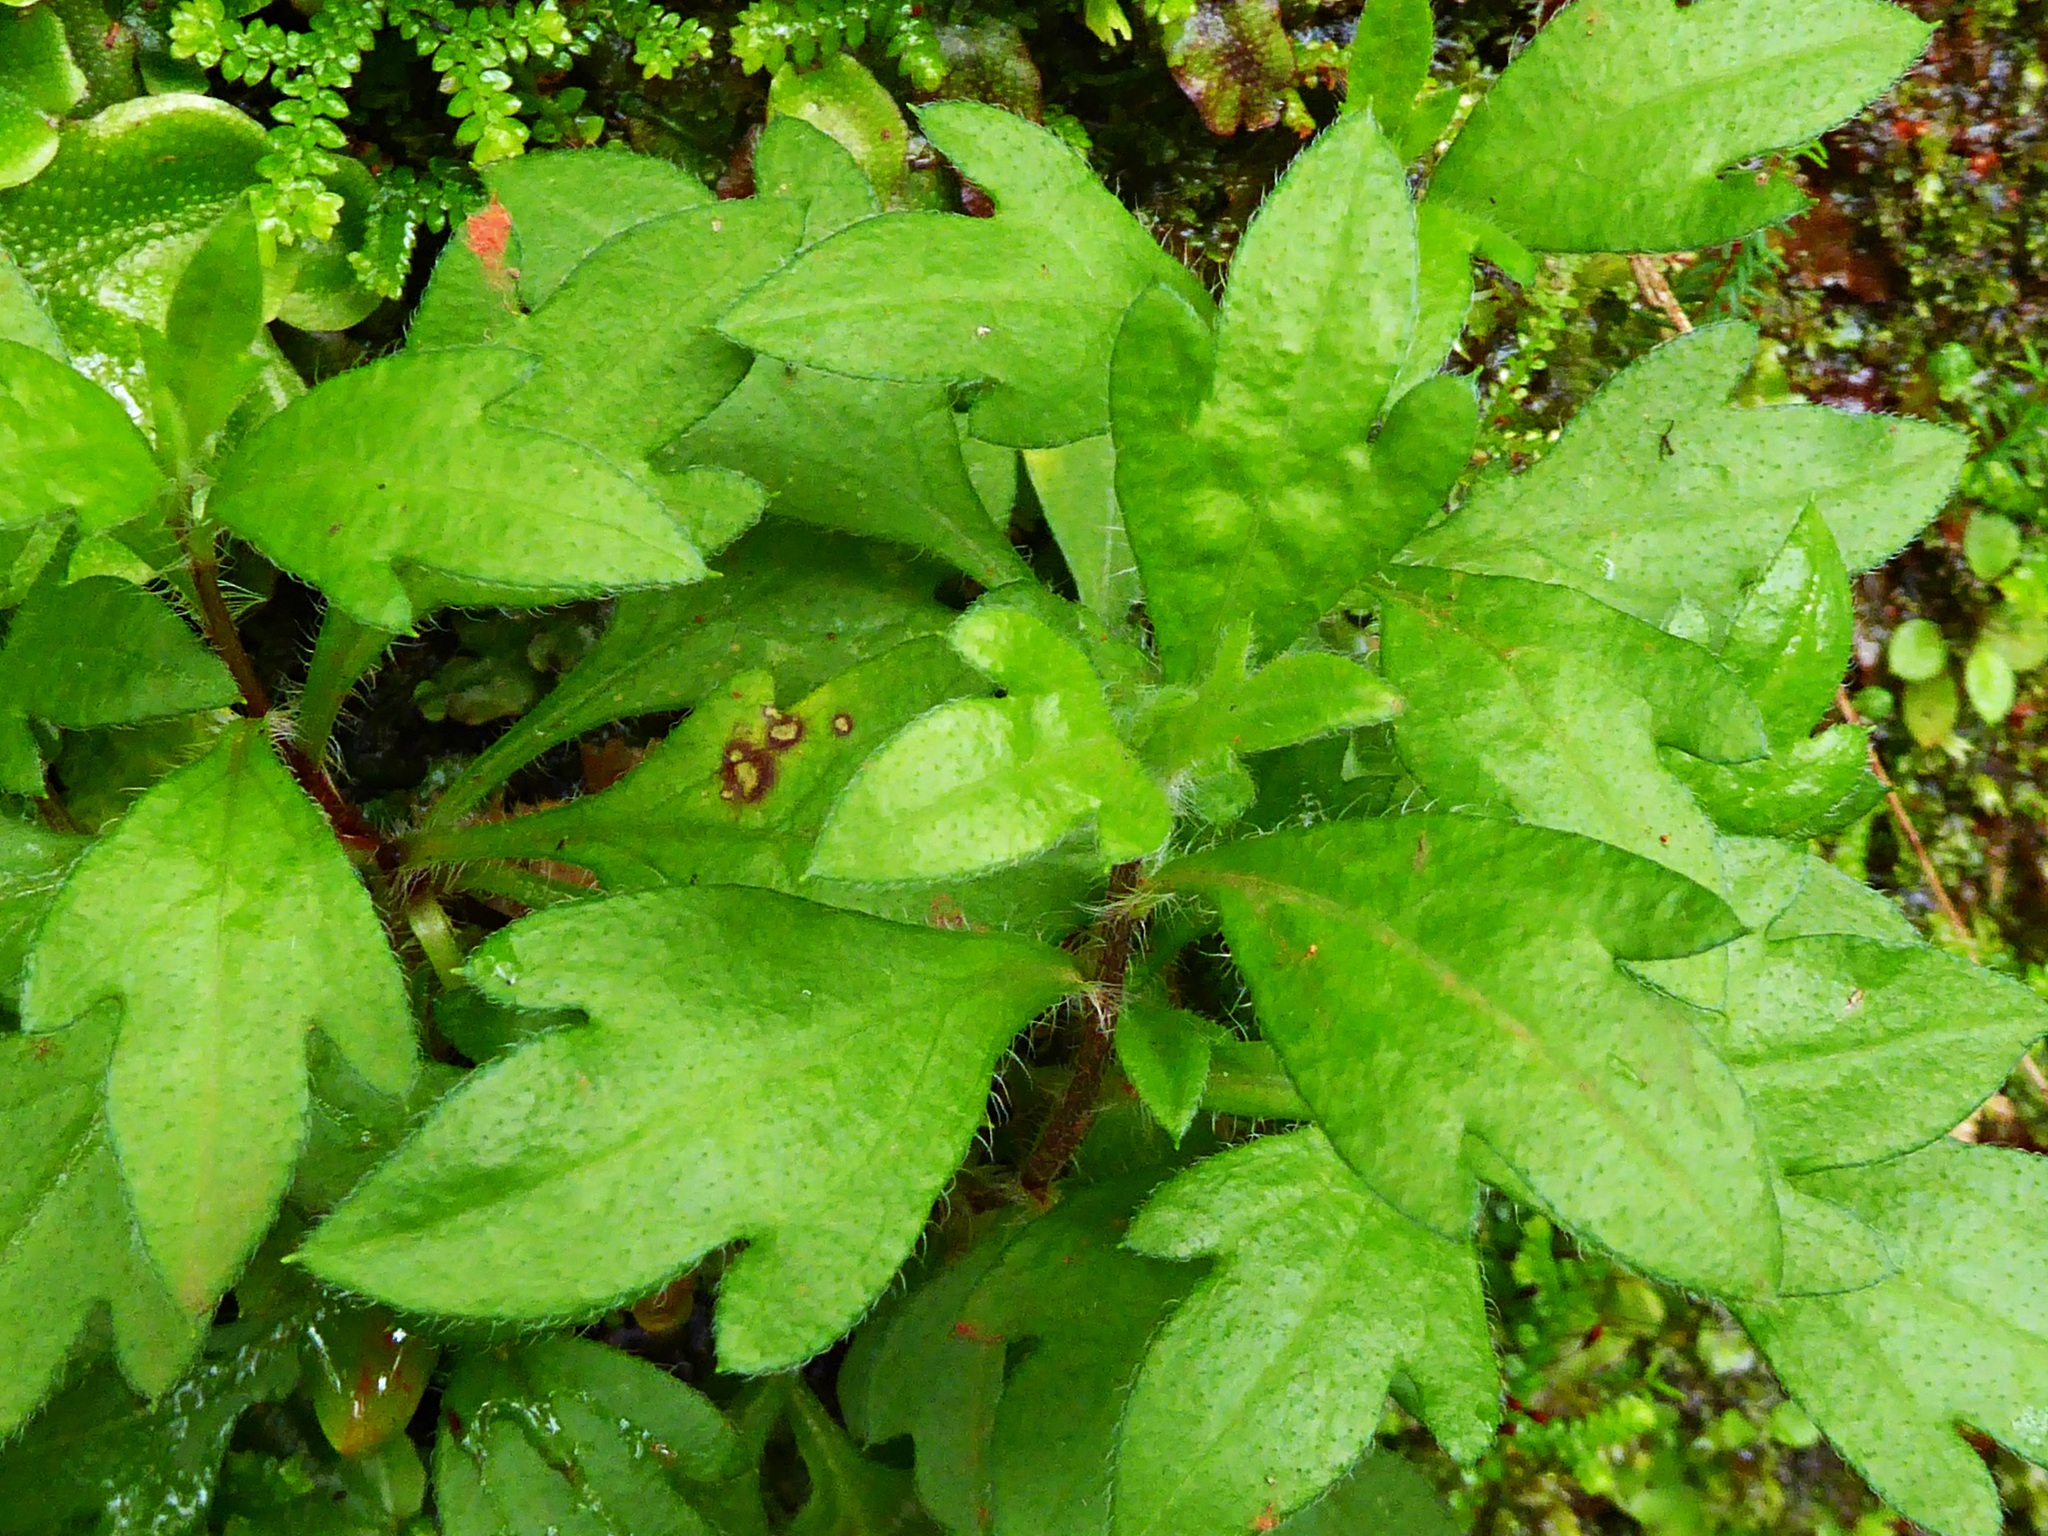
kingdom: Plantae
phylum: Tracheophyta
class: Magnoliopsida
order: Asterales
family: Asteraceae
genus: Erigeron
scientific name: Erigeron karvinskianus
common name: Mexican fleabane
